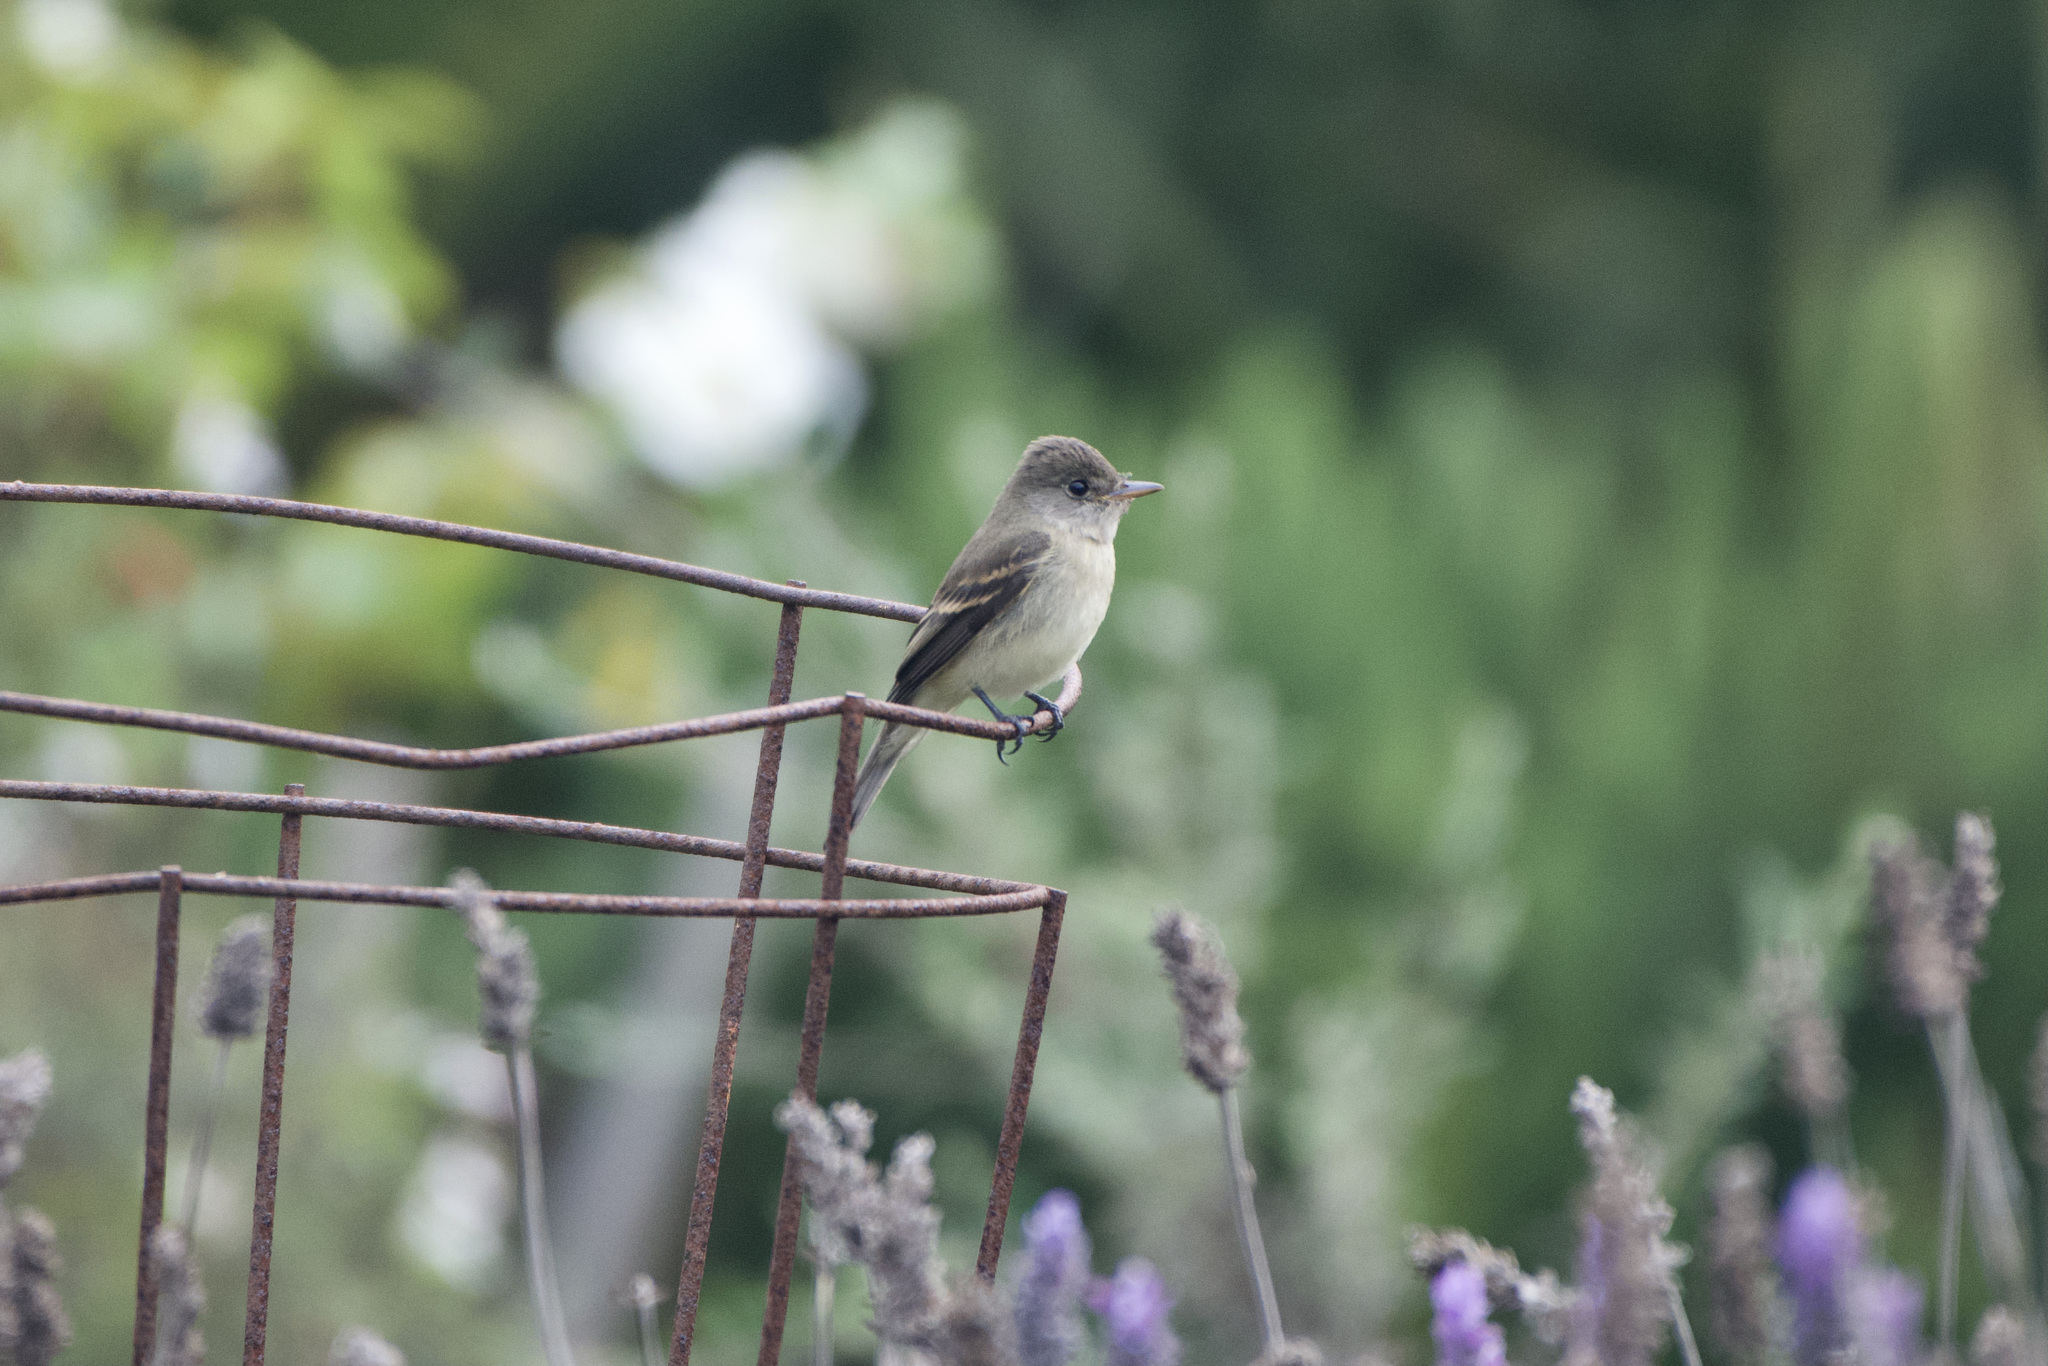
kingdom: Animalia
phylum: Chordata
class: Aves
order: Passeriformes
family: Tyrannidae
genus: Empidonax
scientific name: Empidonax traillii
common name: Willow flycatcher
